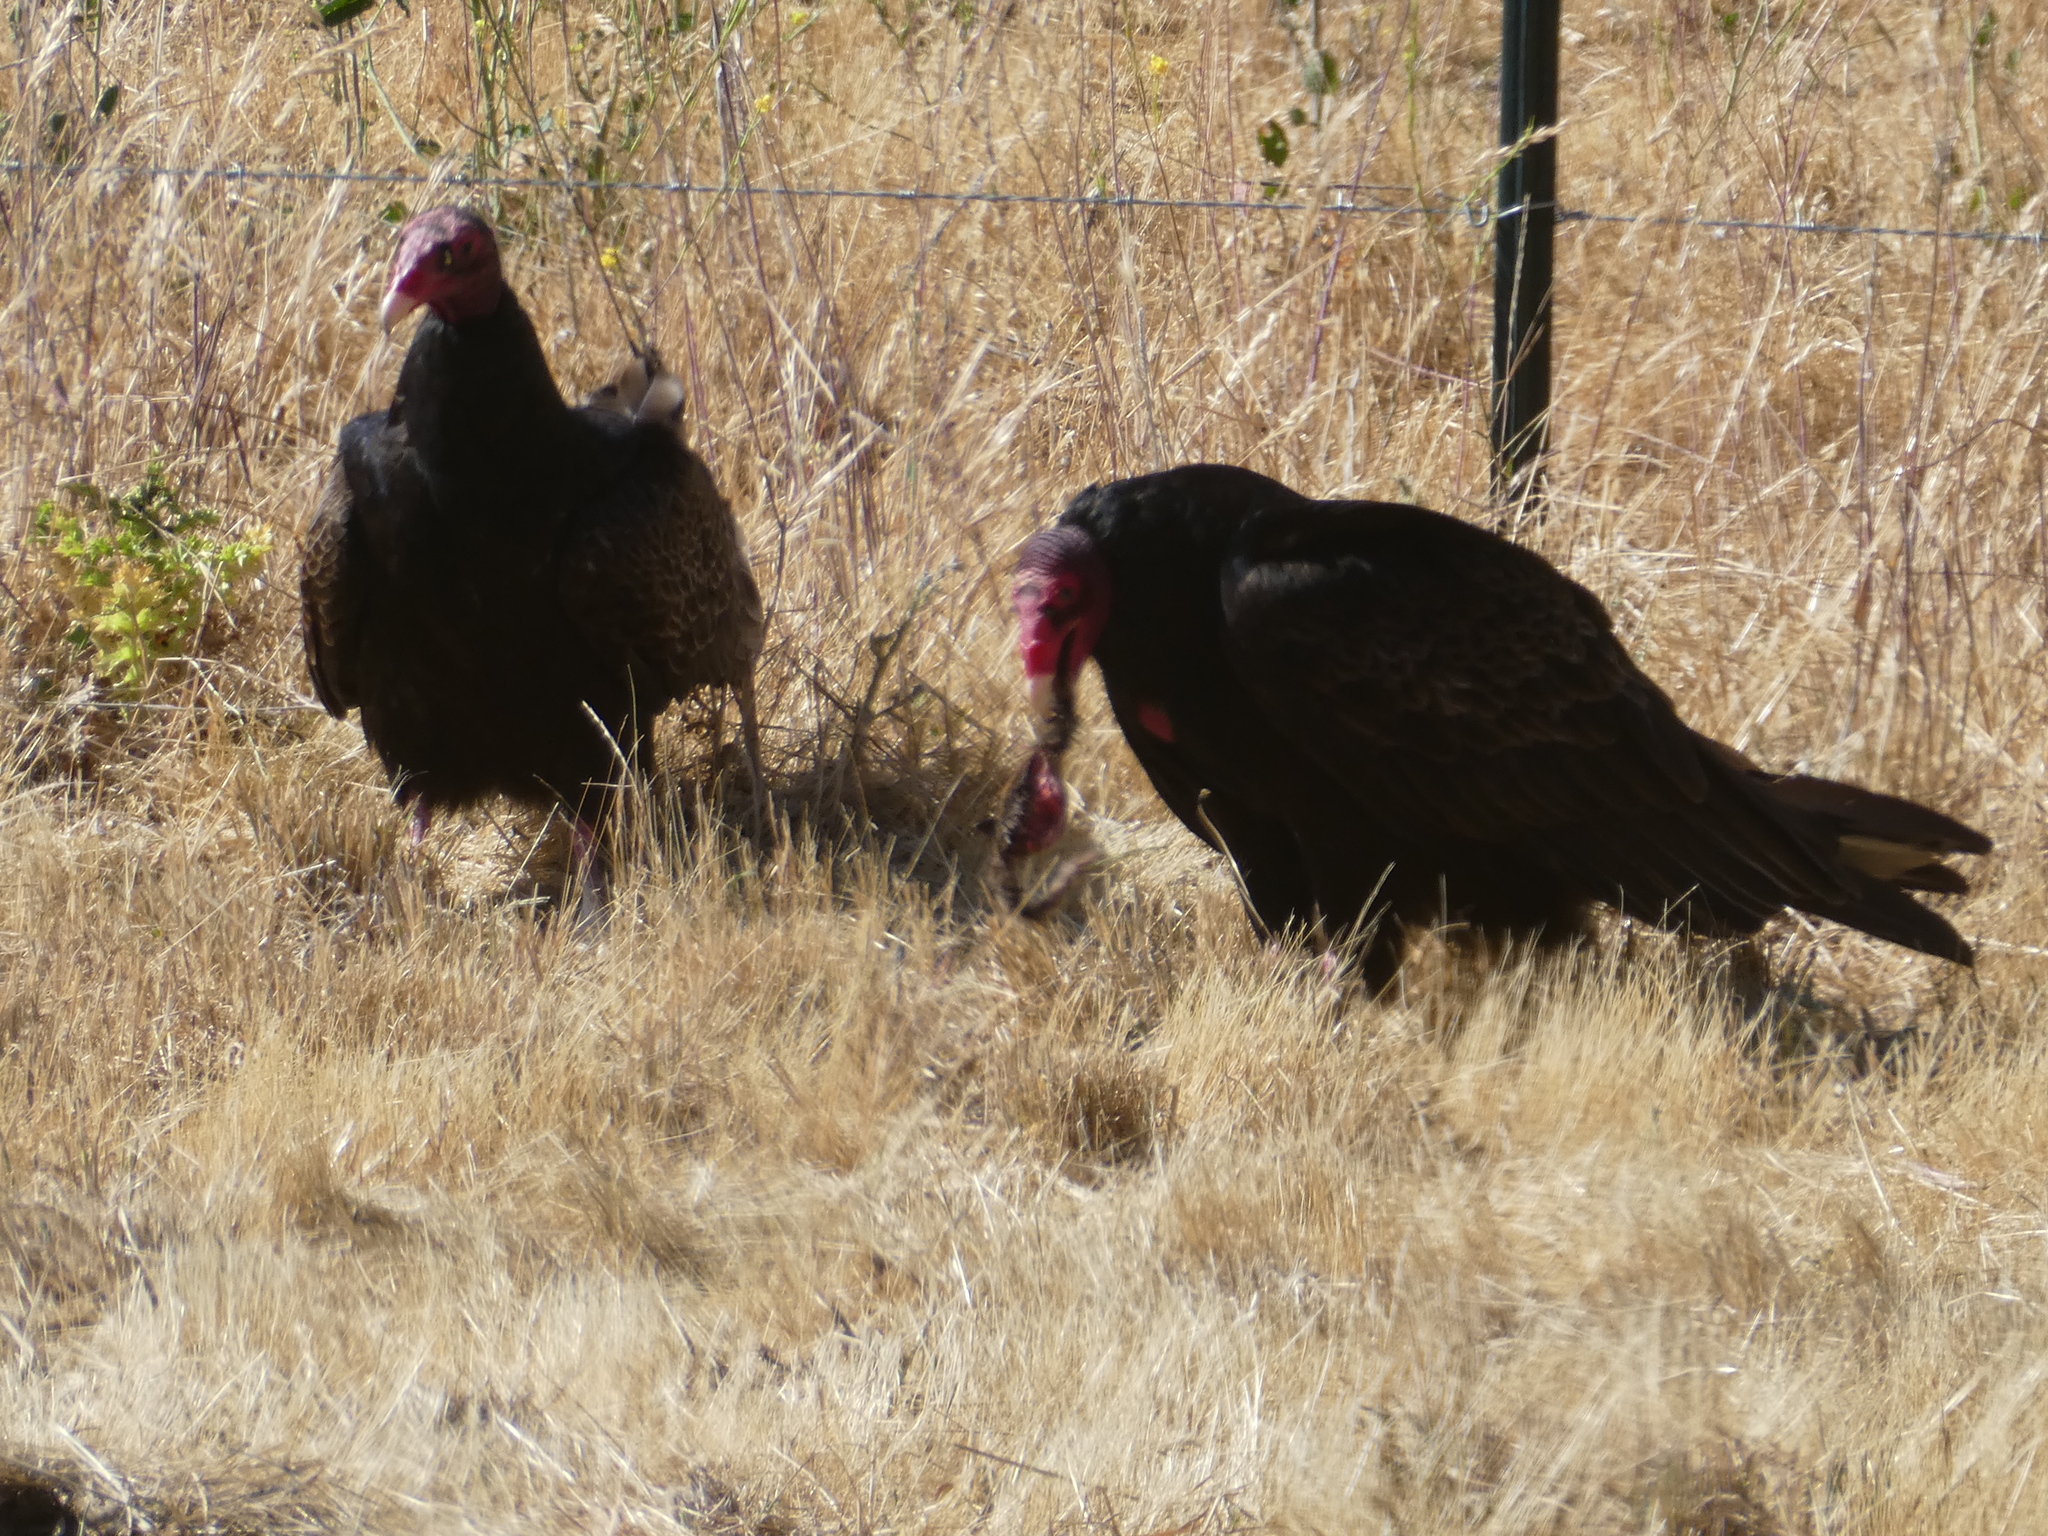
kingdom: Animalia
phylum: Chordata
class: Aves
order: Accipitriformes
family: Cathartidae
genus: Cathartes
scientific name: Cathartes aura
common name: Turkey vulture
